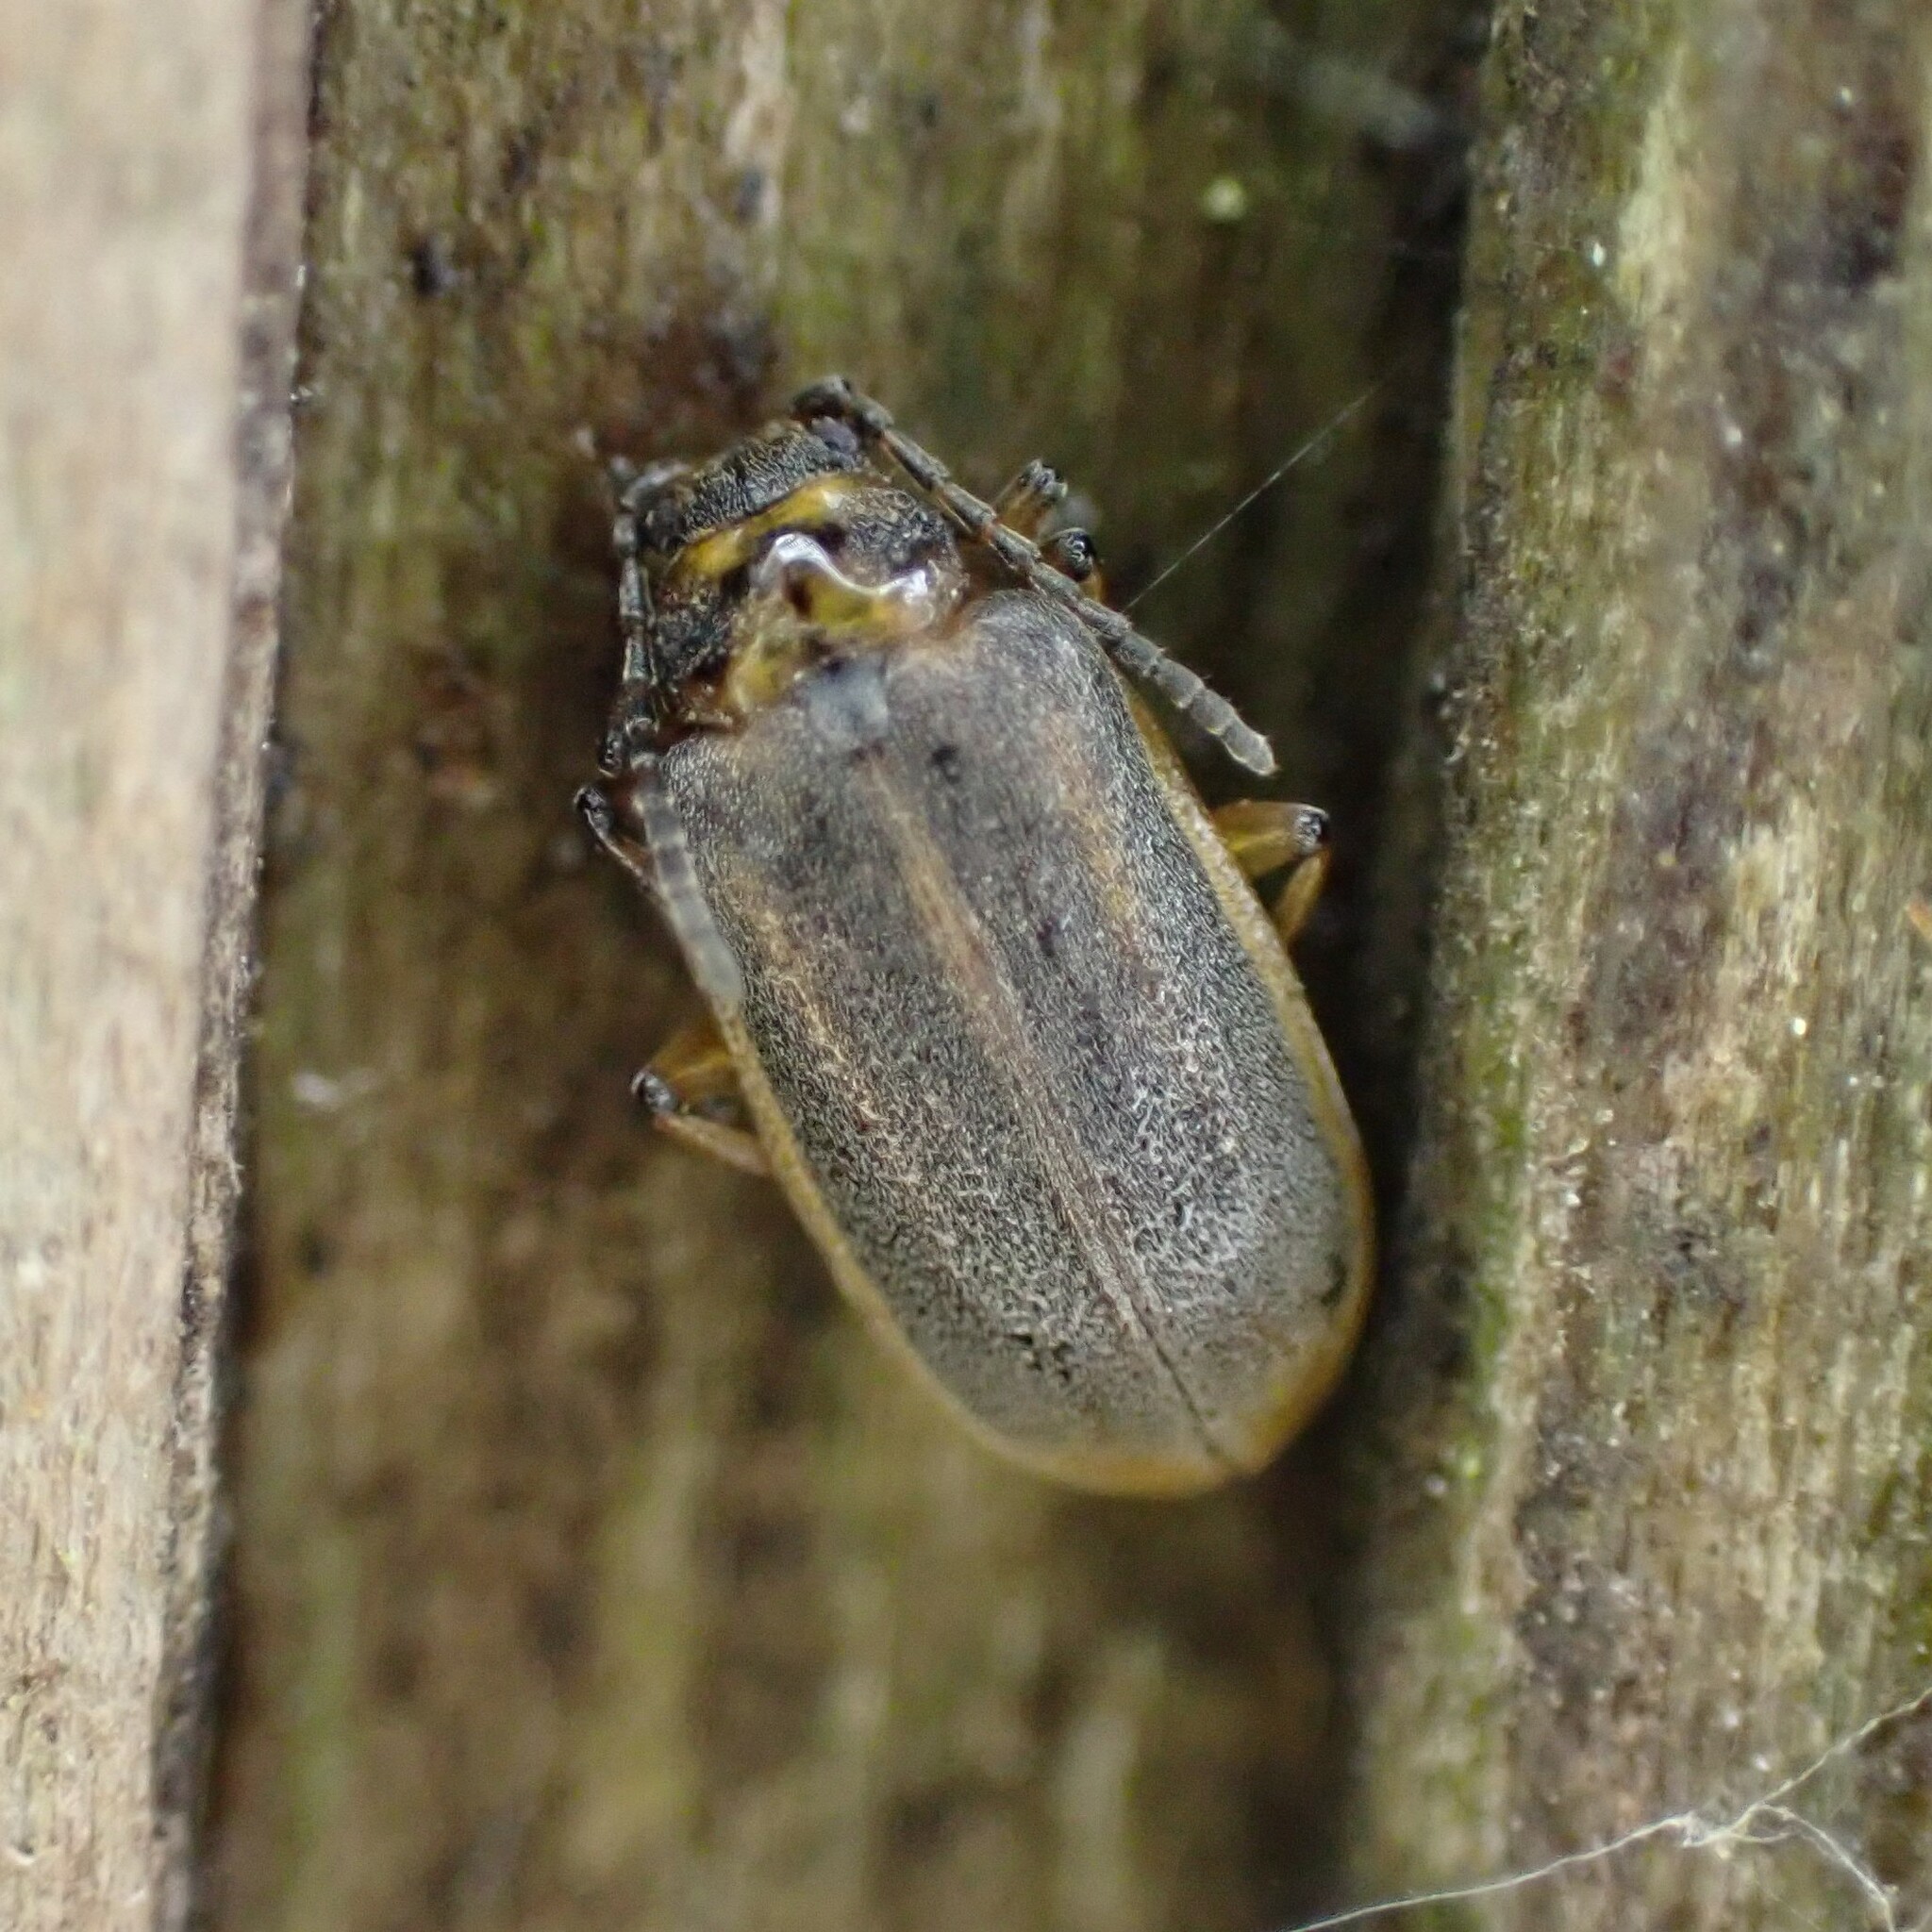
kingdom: Animalia
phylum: Arthropoda
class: Insecta
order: Coleoptera
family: Chrysomelidae
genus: Galerucella
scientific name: Galerucella nymphaeae
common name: Leaf beetle
